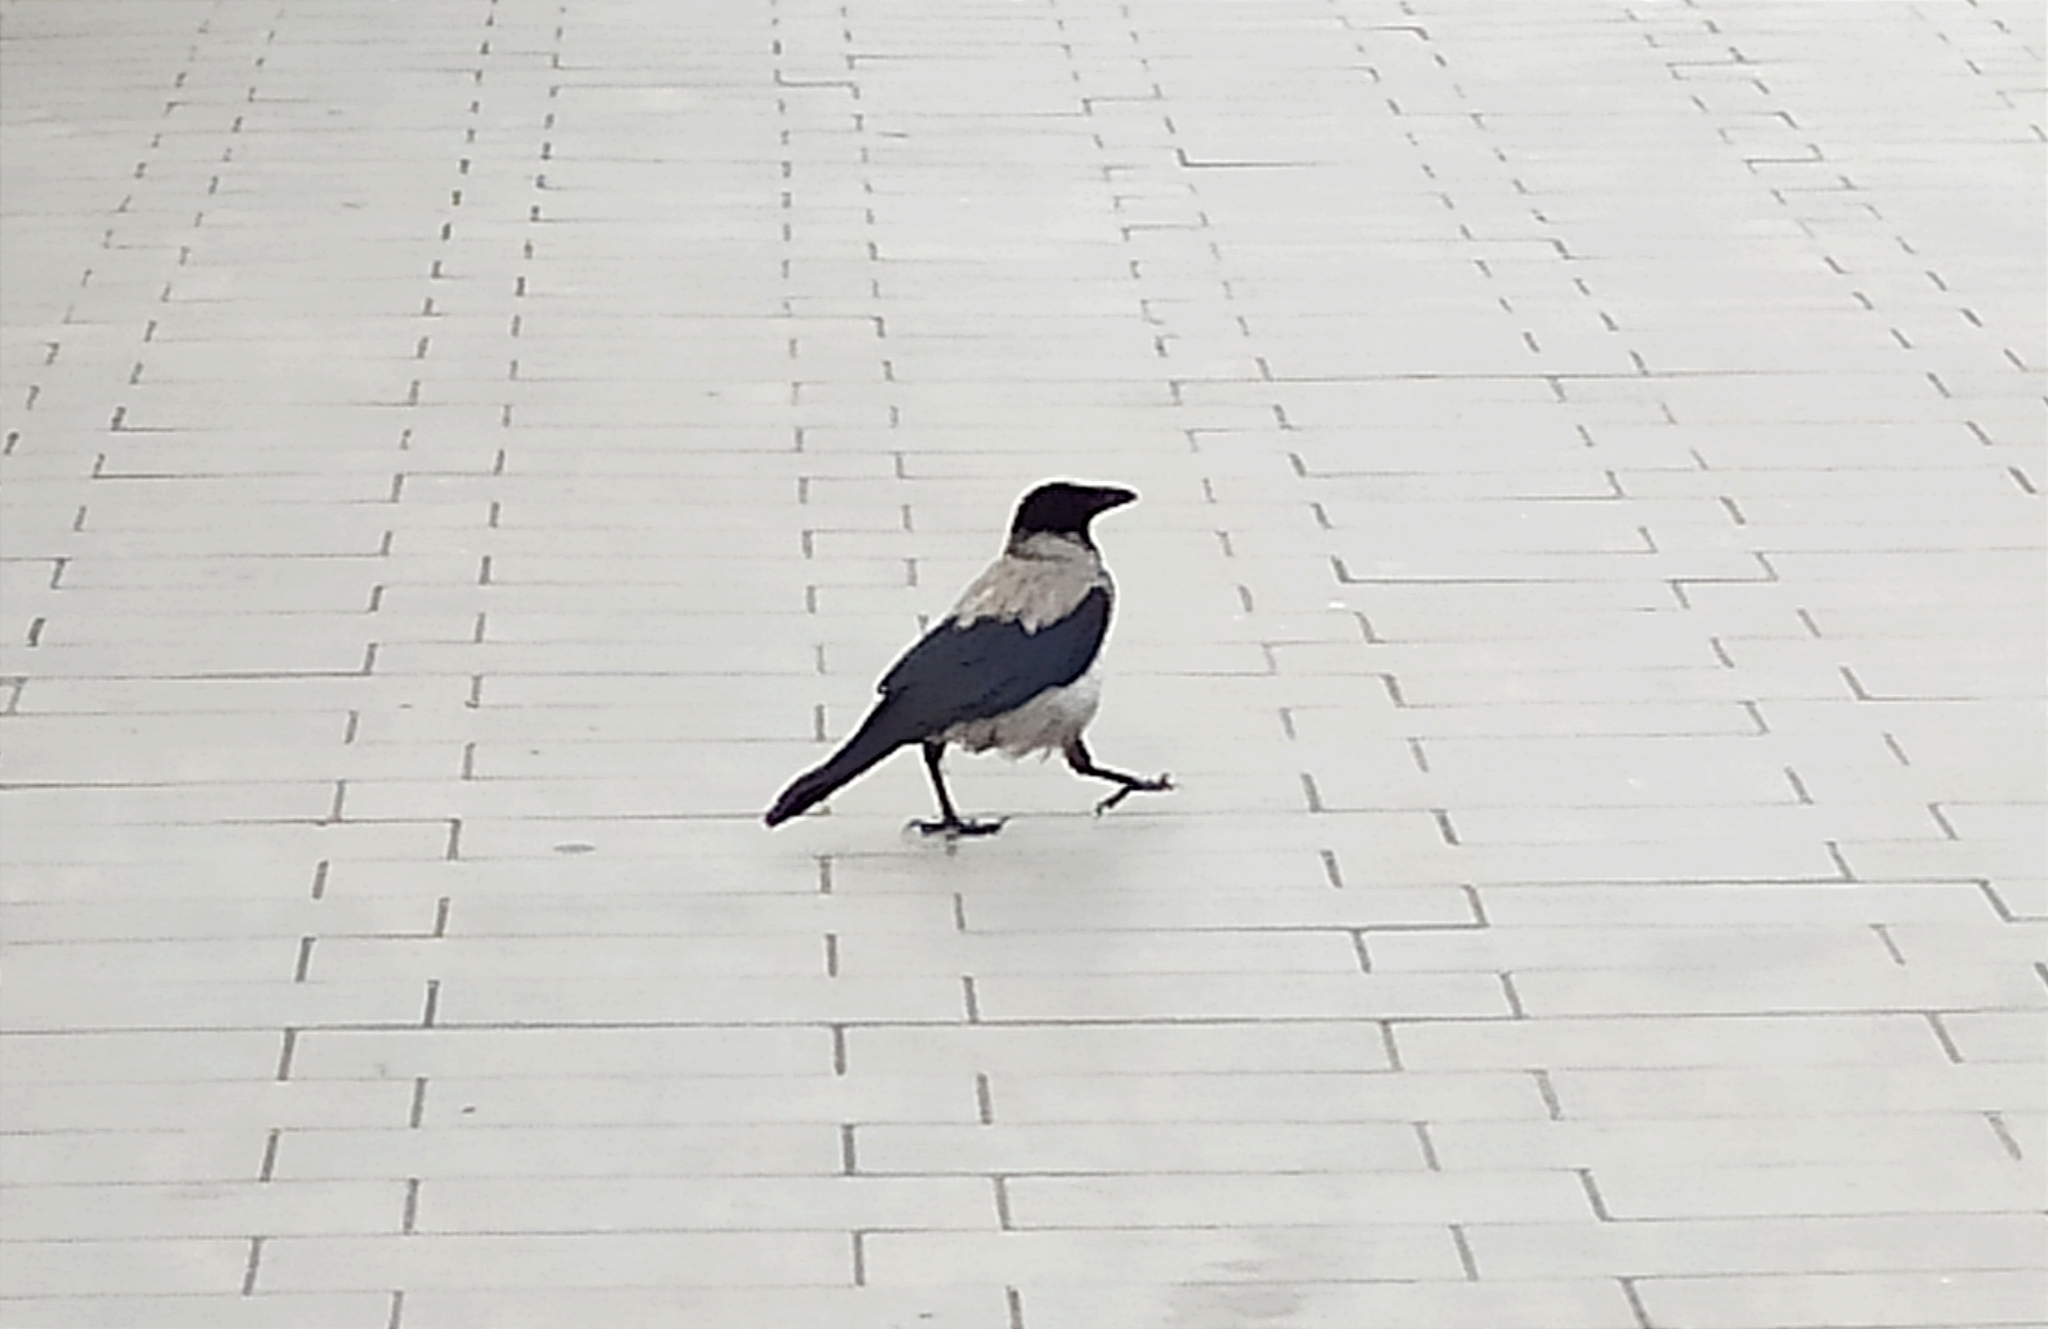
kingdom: Animalia
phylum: Chordata
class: Aves
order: Passeriformes
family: Corvidae
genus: Corvus
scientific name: Corvus cornix
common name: Hooded crow
